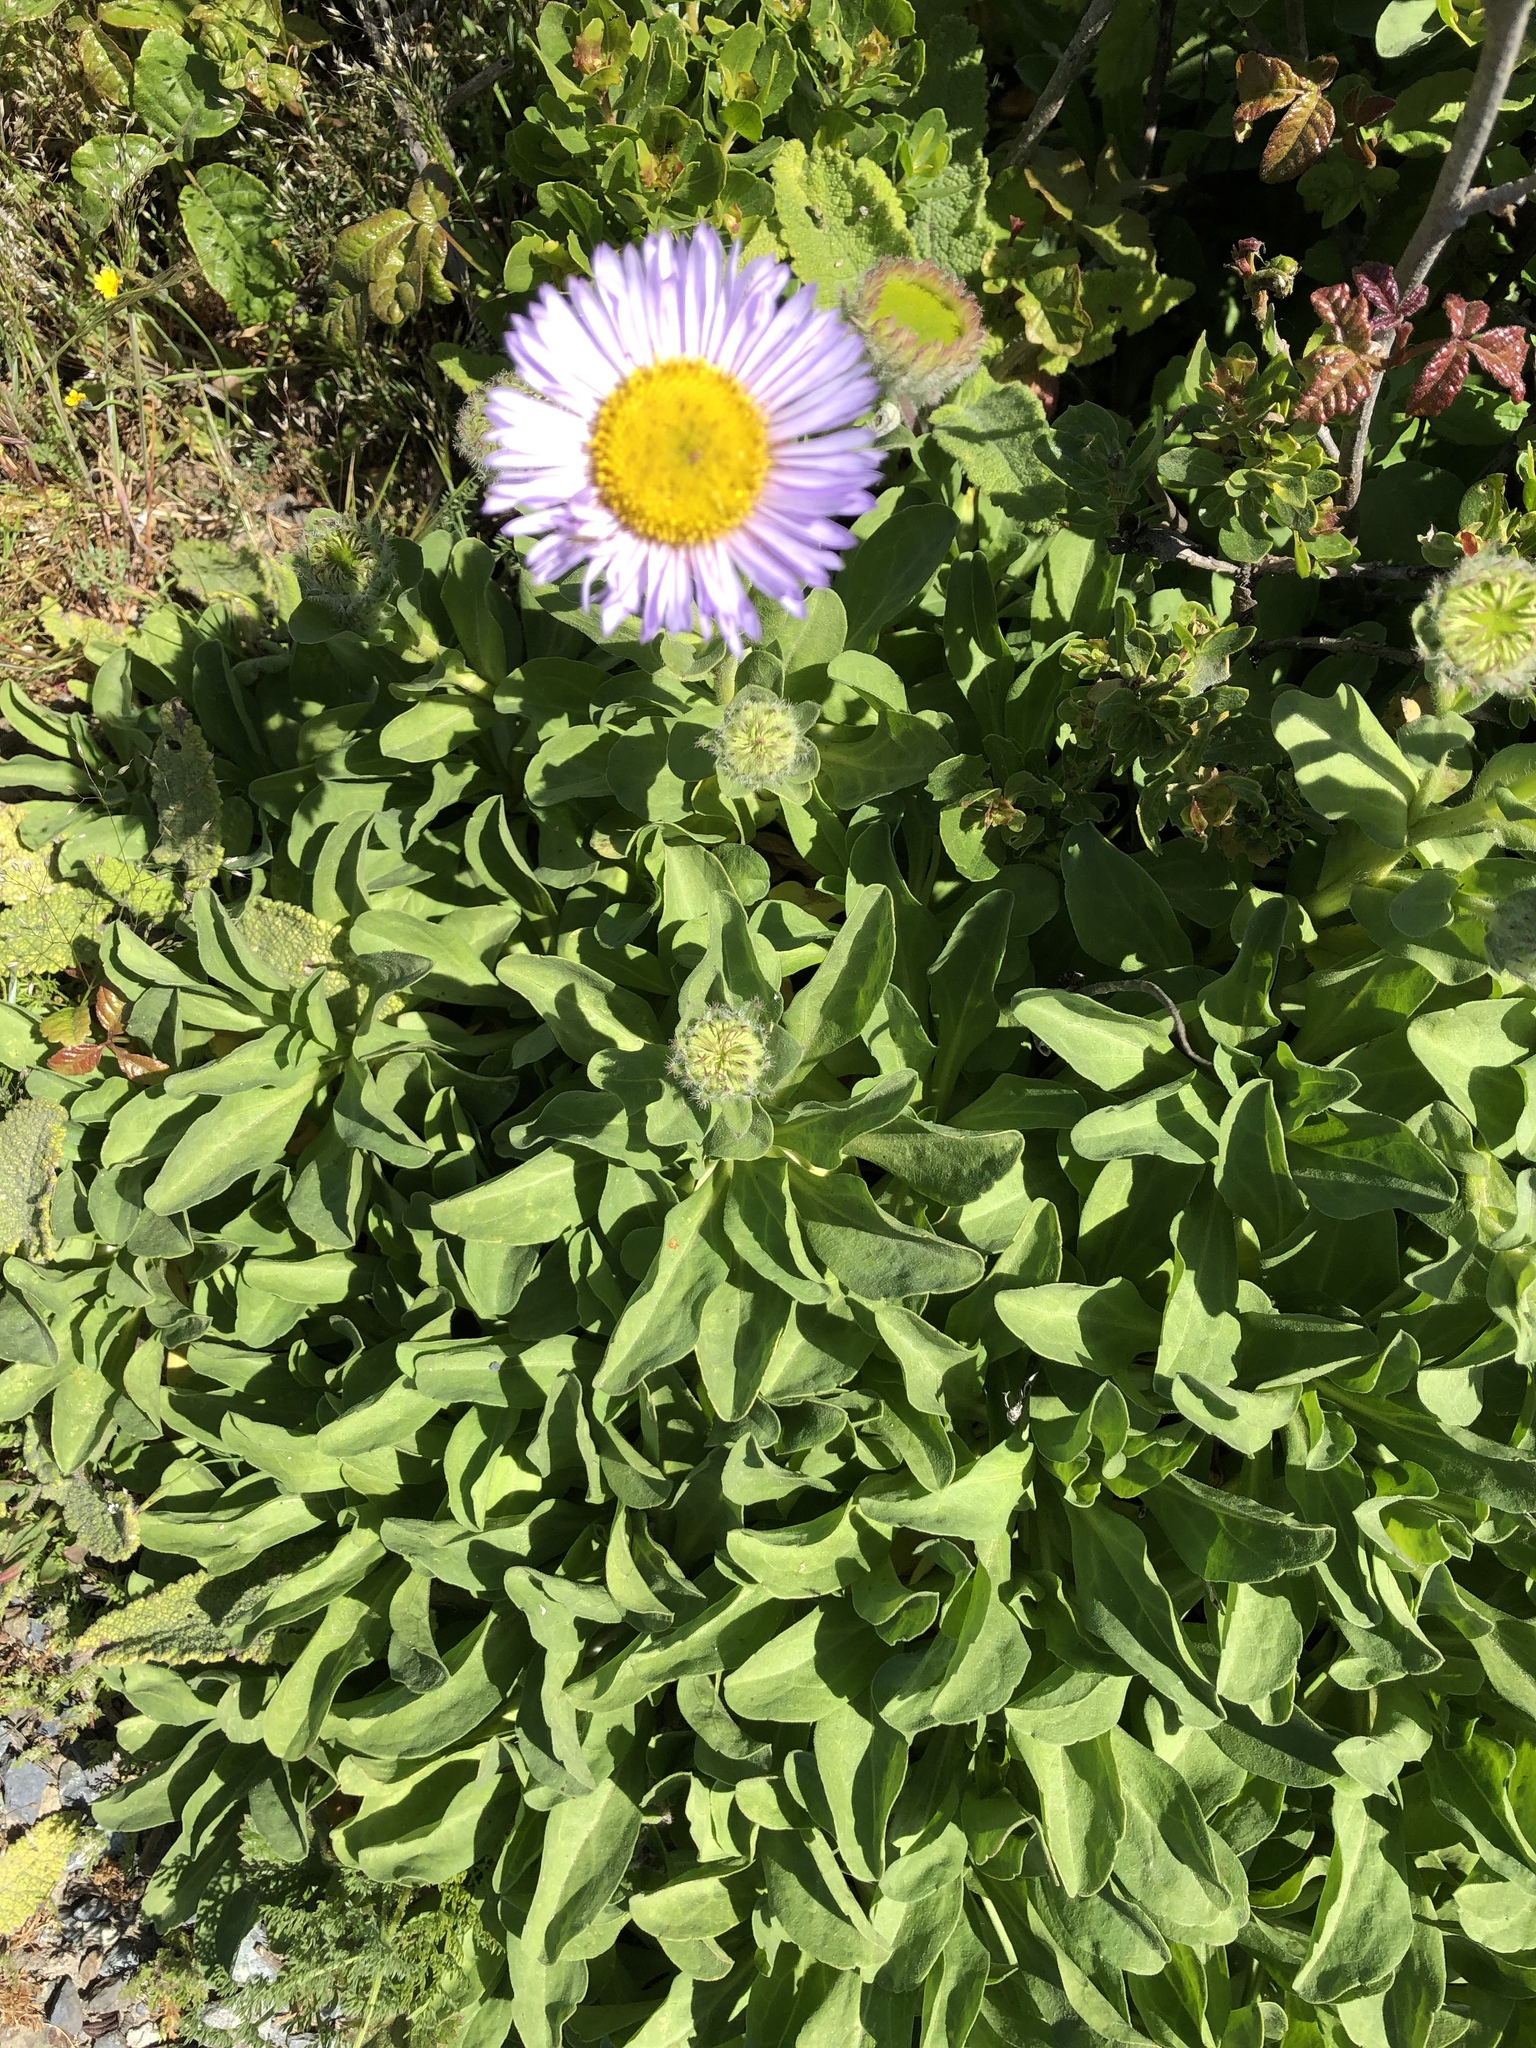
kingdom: Plantae
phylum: Tracheophyta
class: Magnoliopsida
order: Asterales
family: Asteraceae
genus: Erigeron
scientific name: Erigeron glaucus
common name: Seaside daisy
